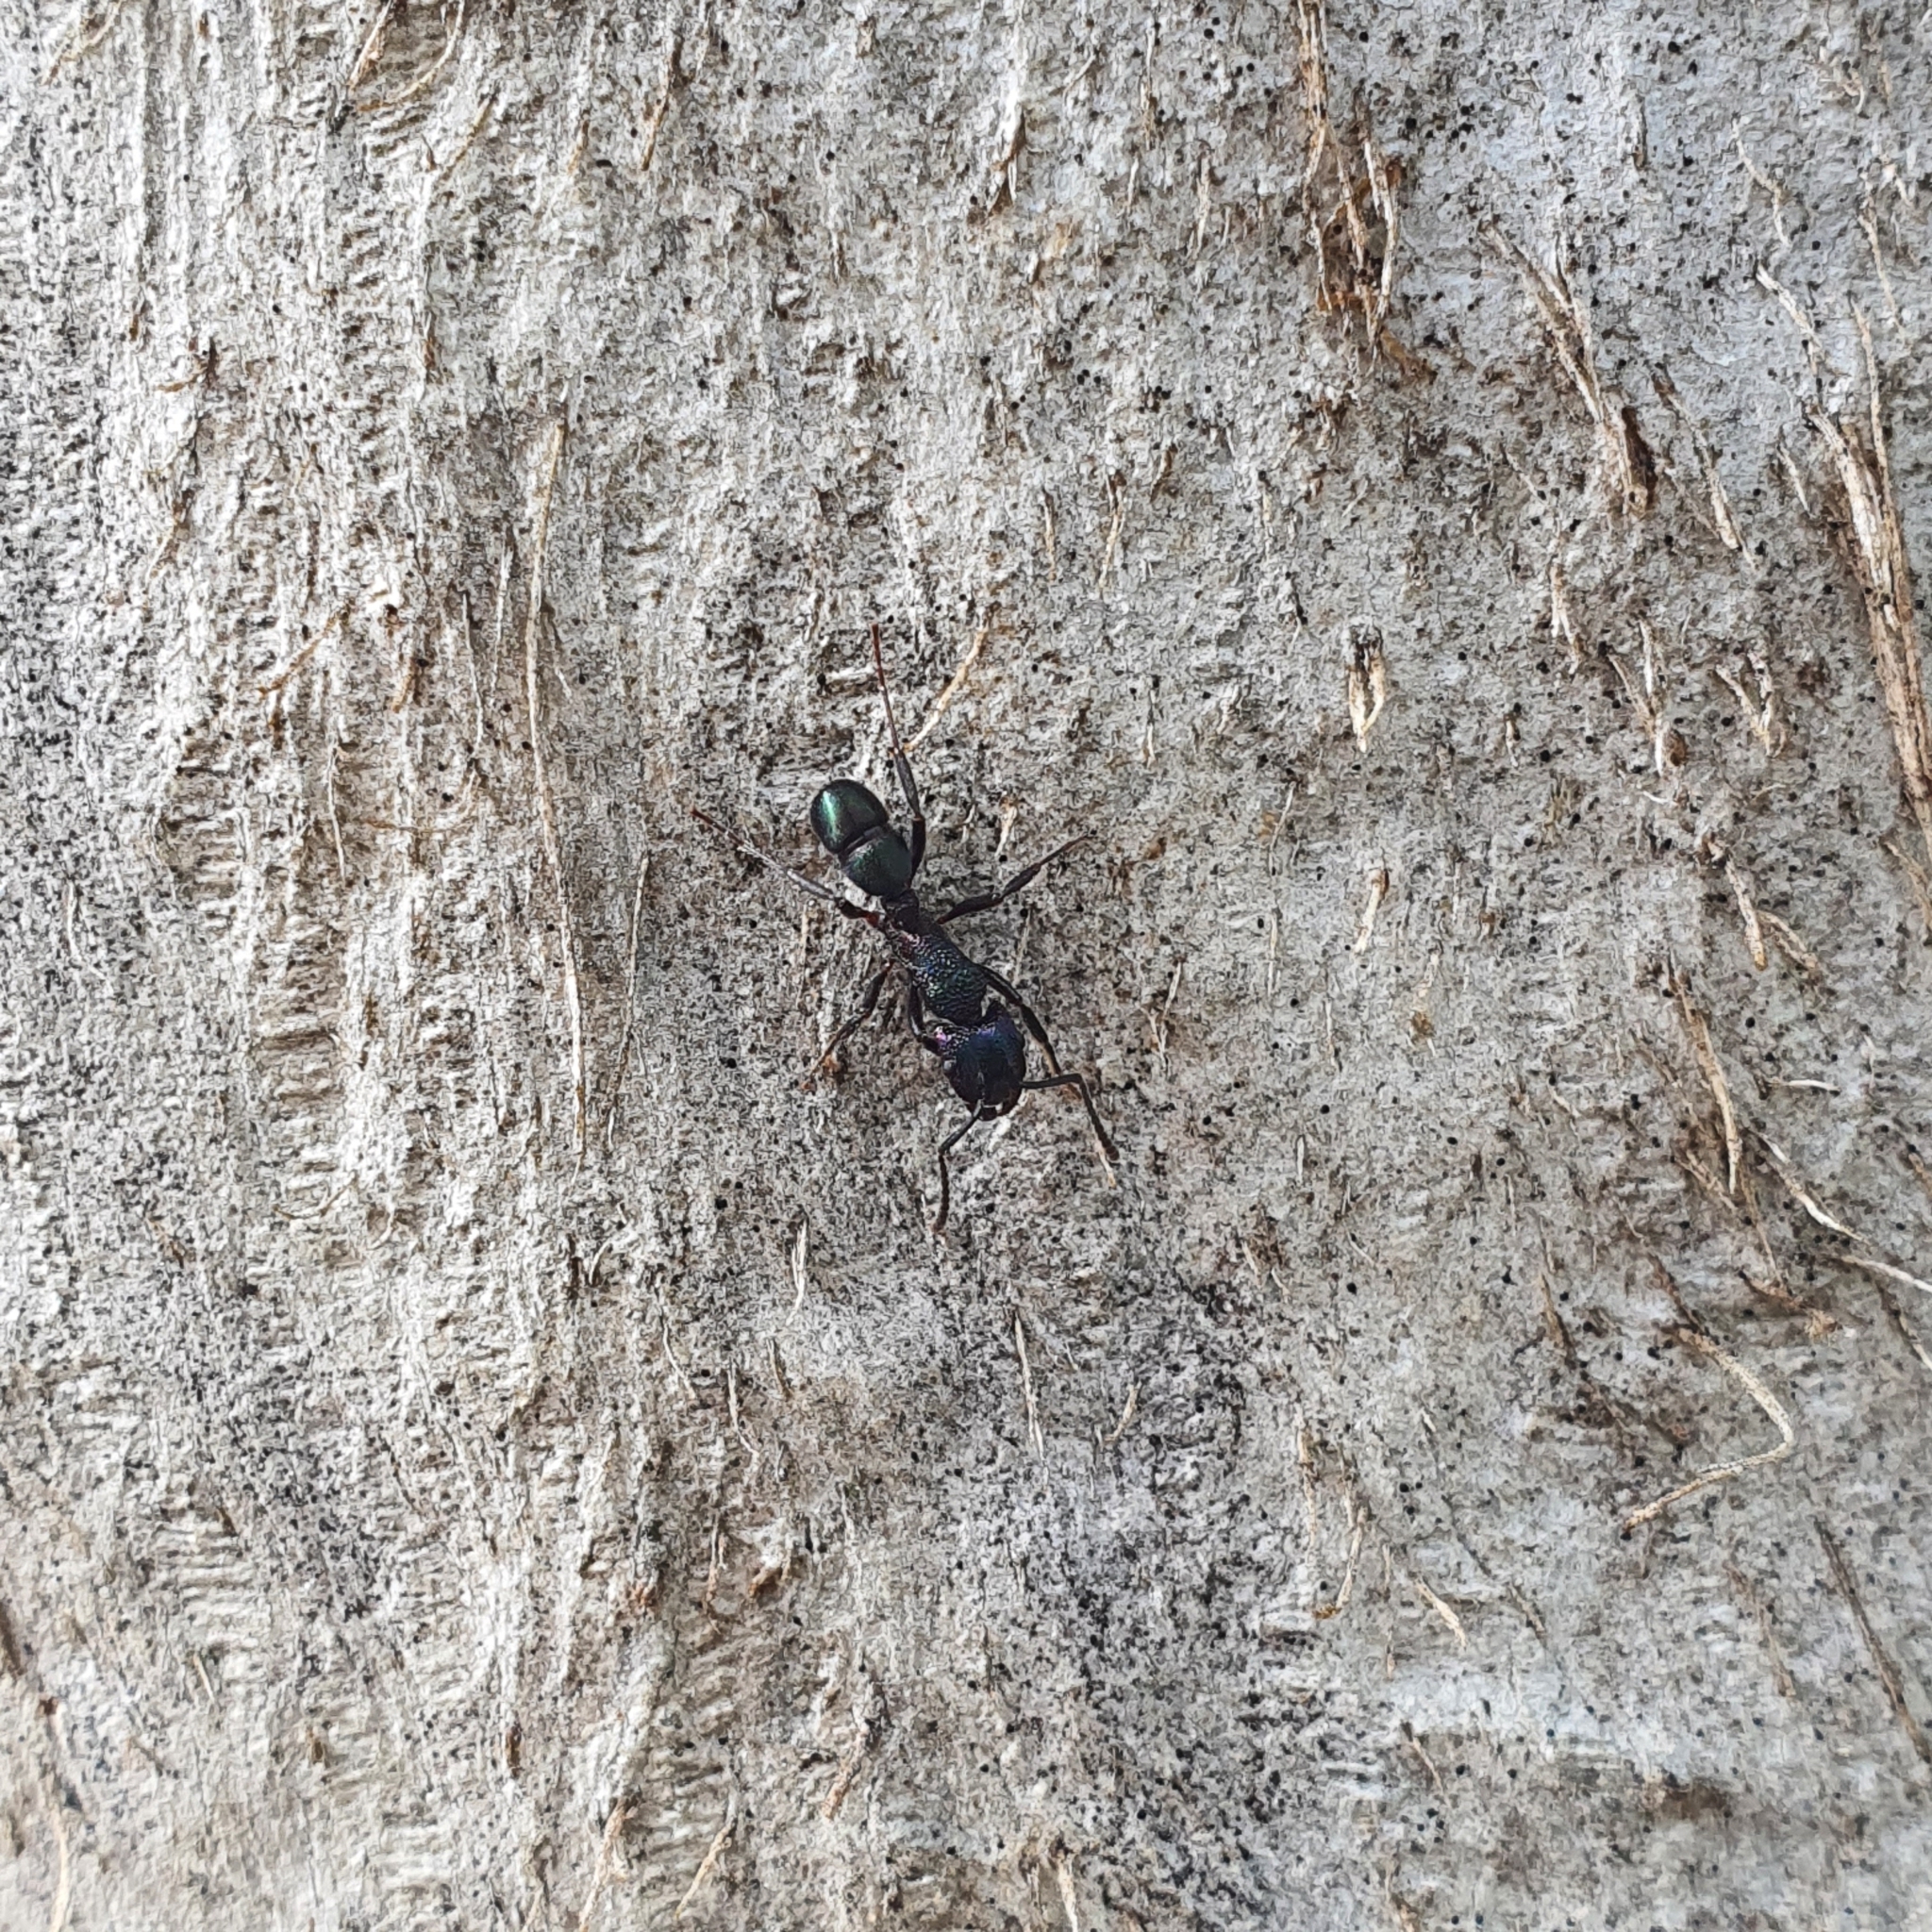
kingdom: Animalia
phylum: Arthropoda
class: Insecta
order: Hymenoptera
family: Formicidae
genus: Rhytidoponera
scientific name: Rhytidoponera metallica
